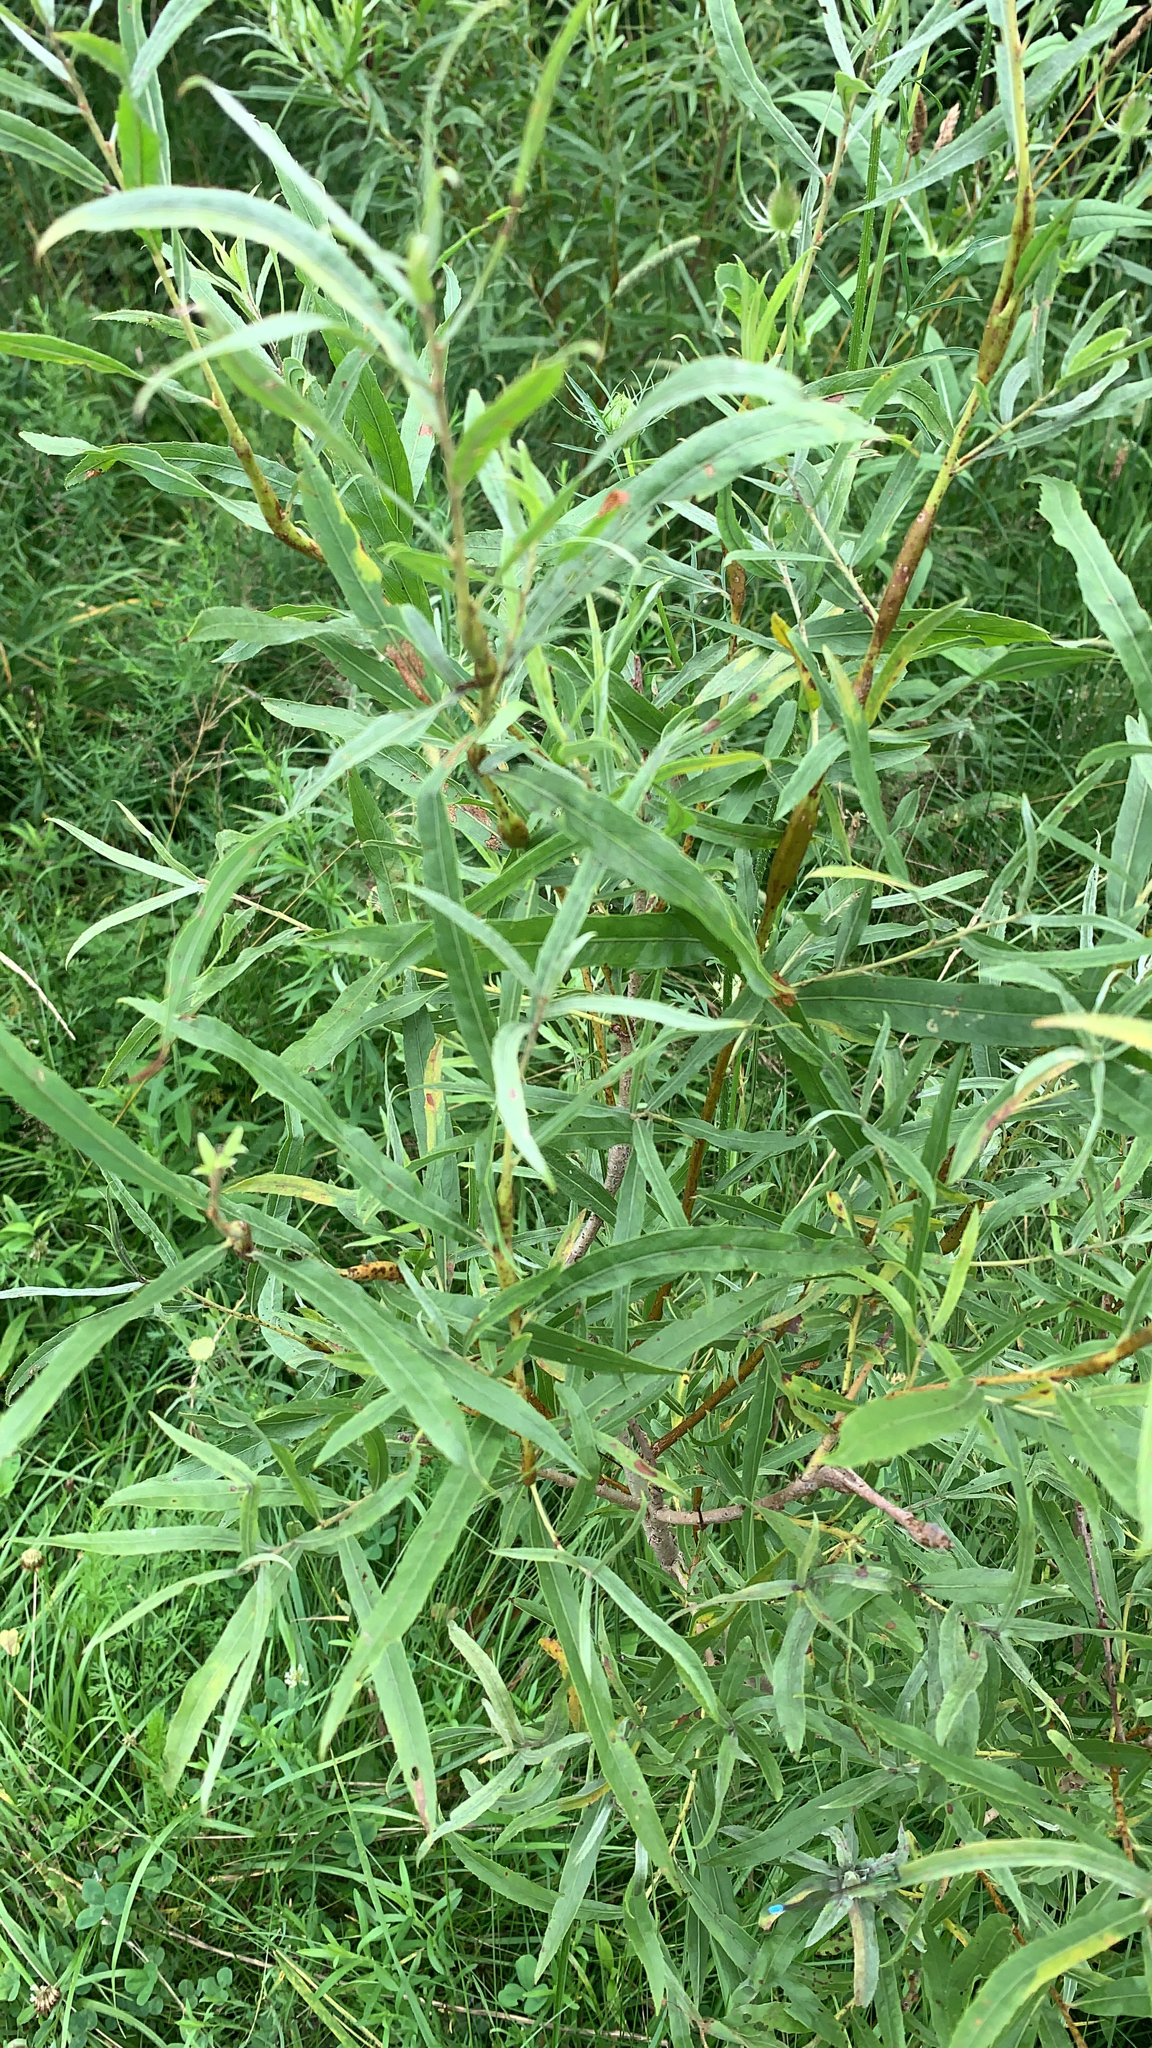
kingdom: Plantae
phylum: Tracheophyta
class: Magnoliopsida
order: Malpighiales
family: Salicaceae
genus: Salix
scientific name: Salix interior
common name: Sandbar willow
